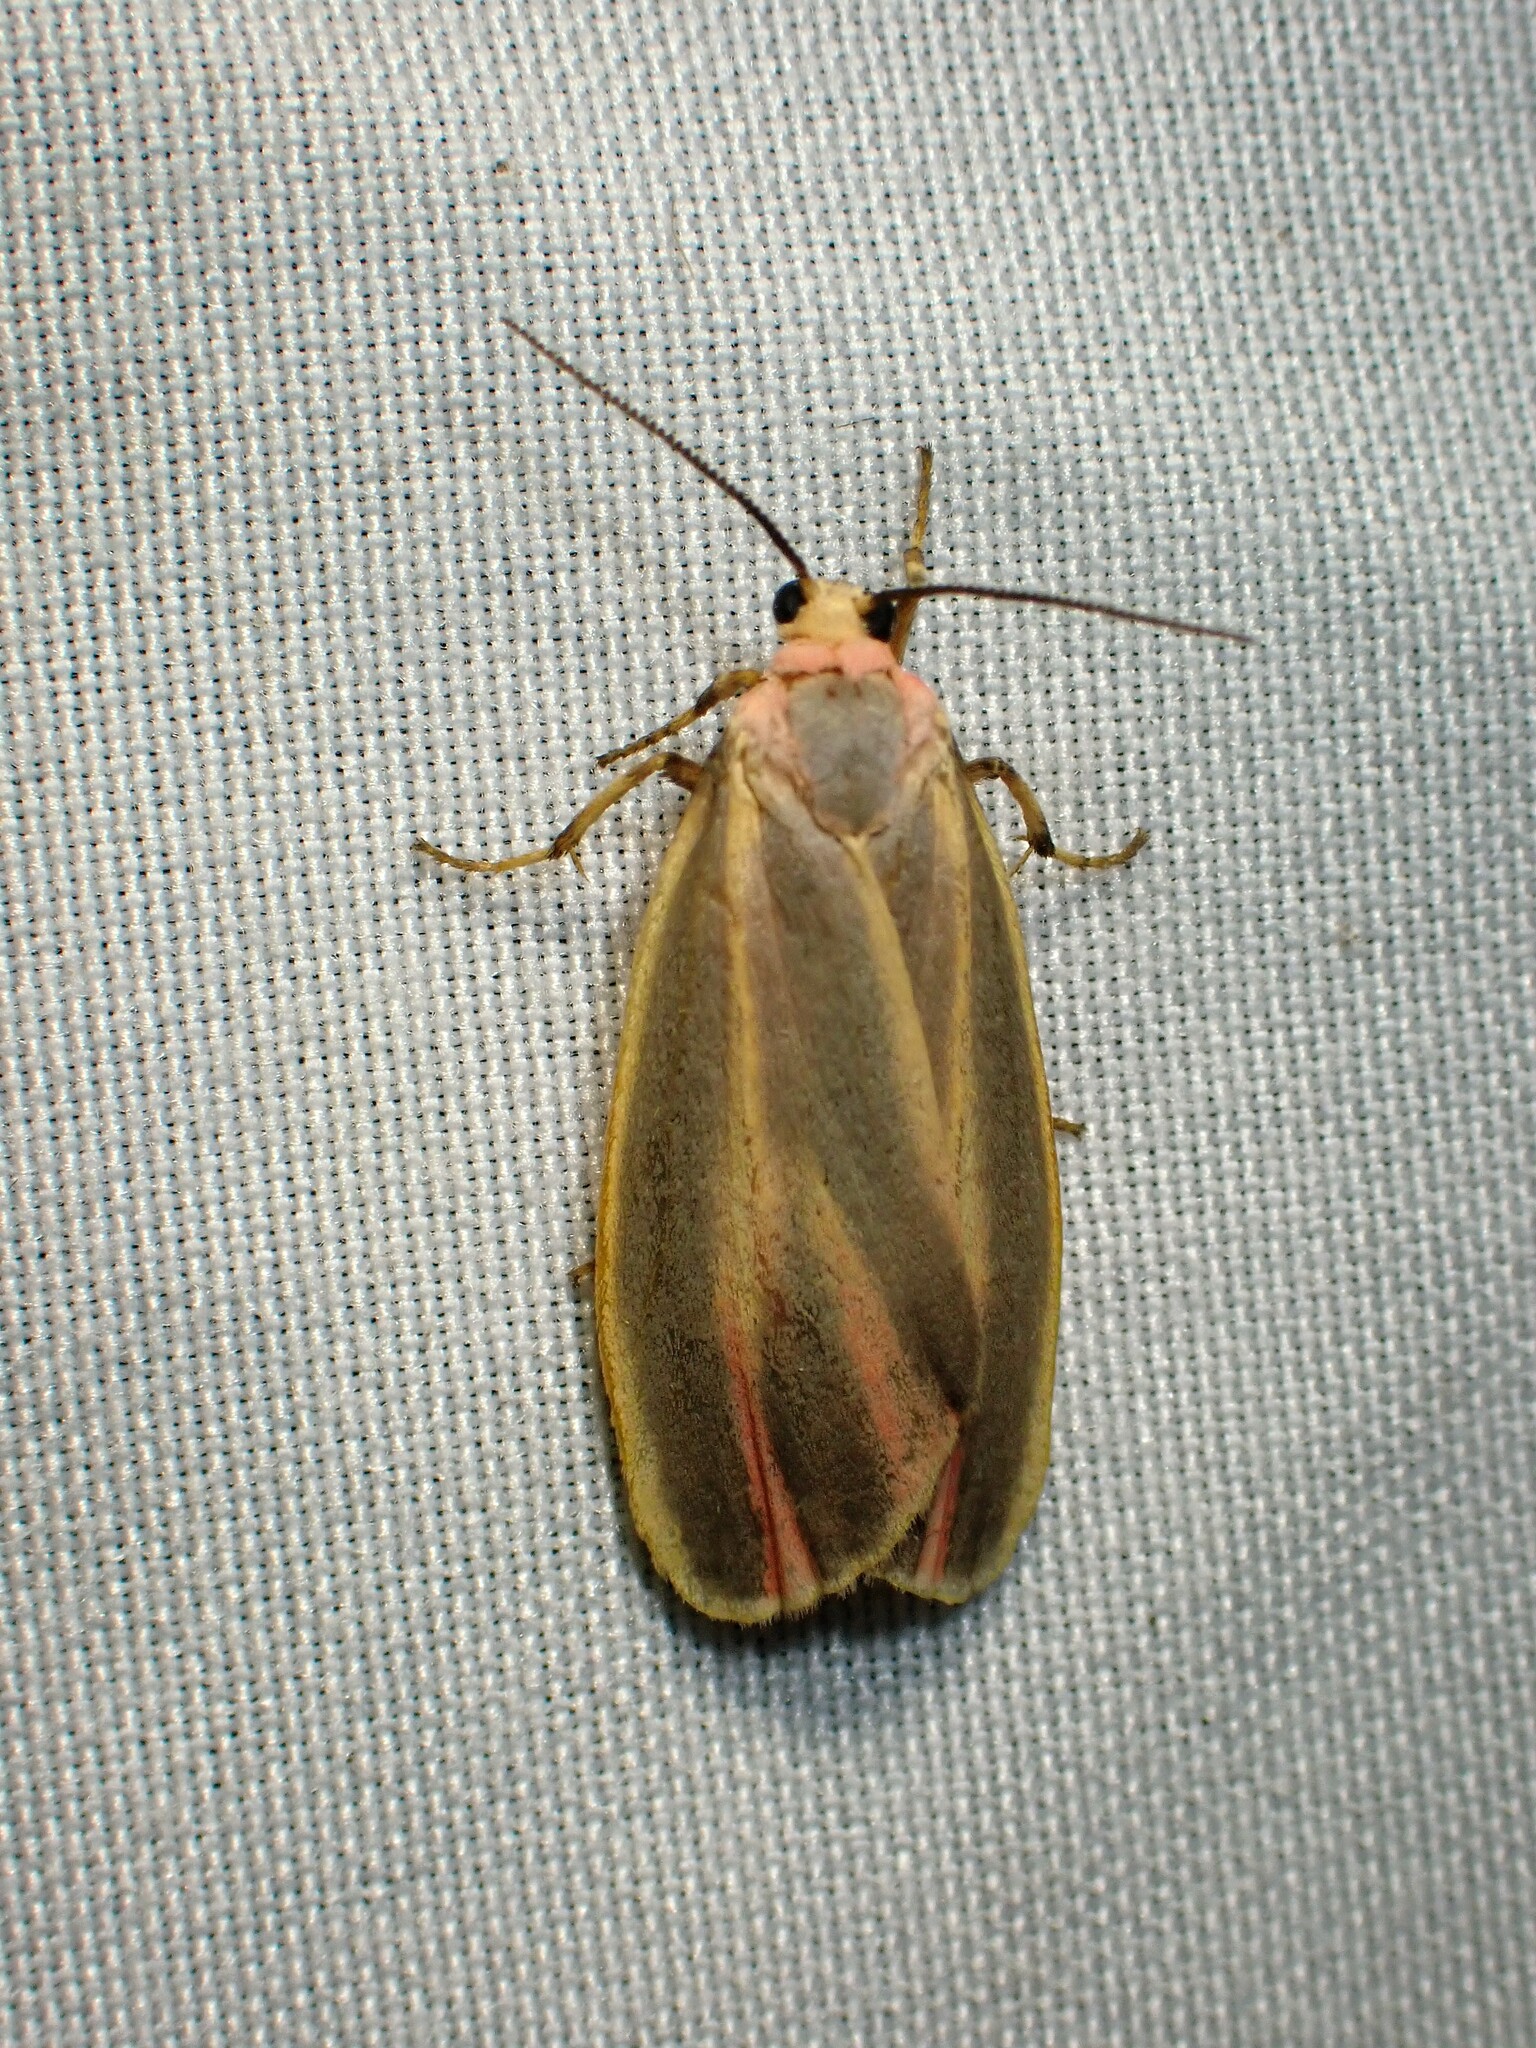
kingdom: Animalia
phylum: Arthropoda
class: Insecta
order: Lepidoptera
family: Erebidae
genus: Hypoprepia
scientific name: Hypoprepia fucosa
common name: Painted lichen moth
